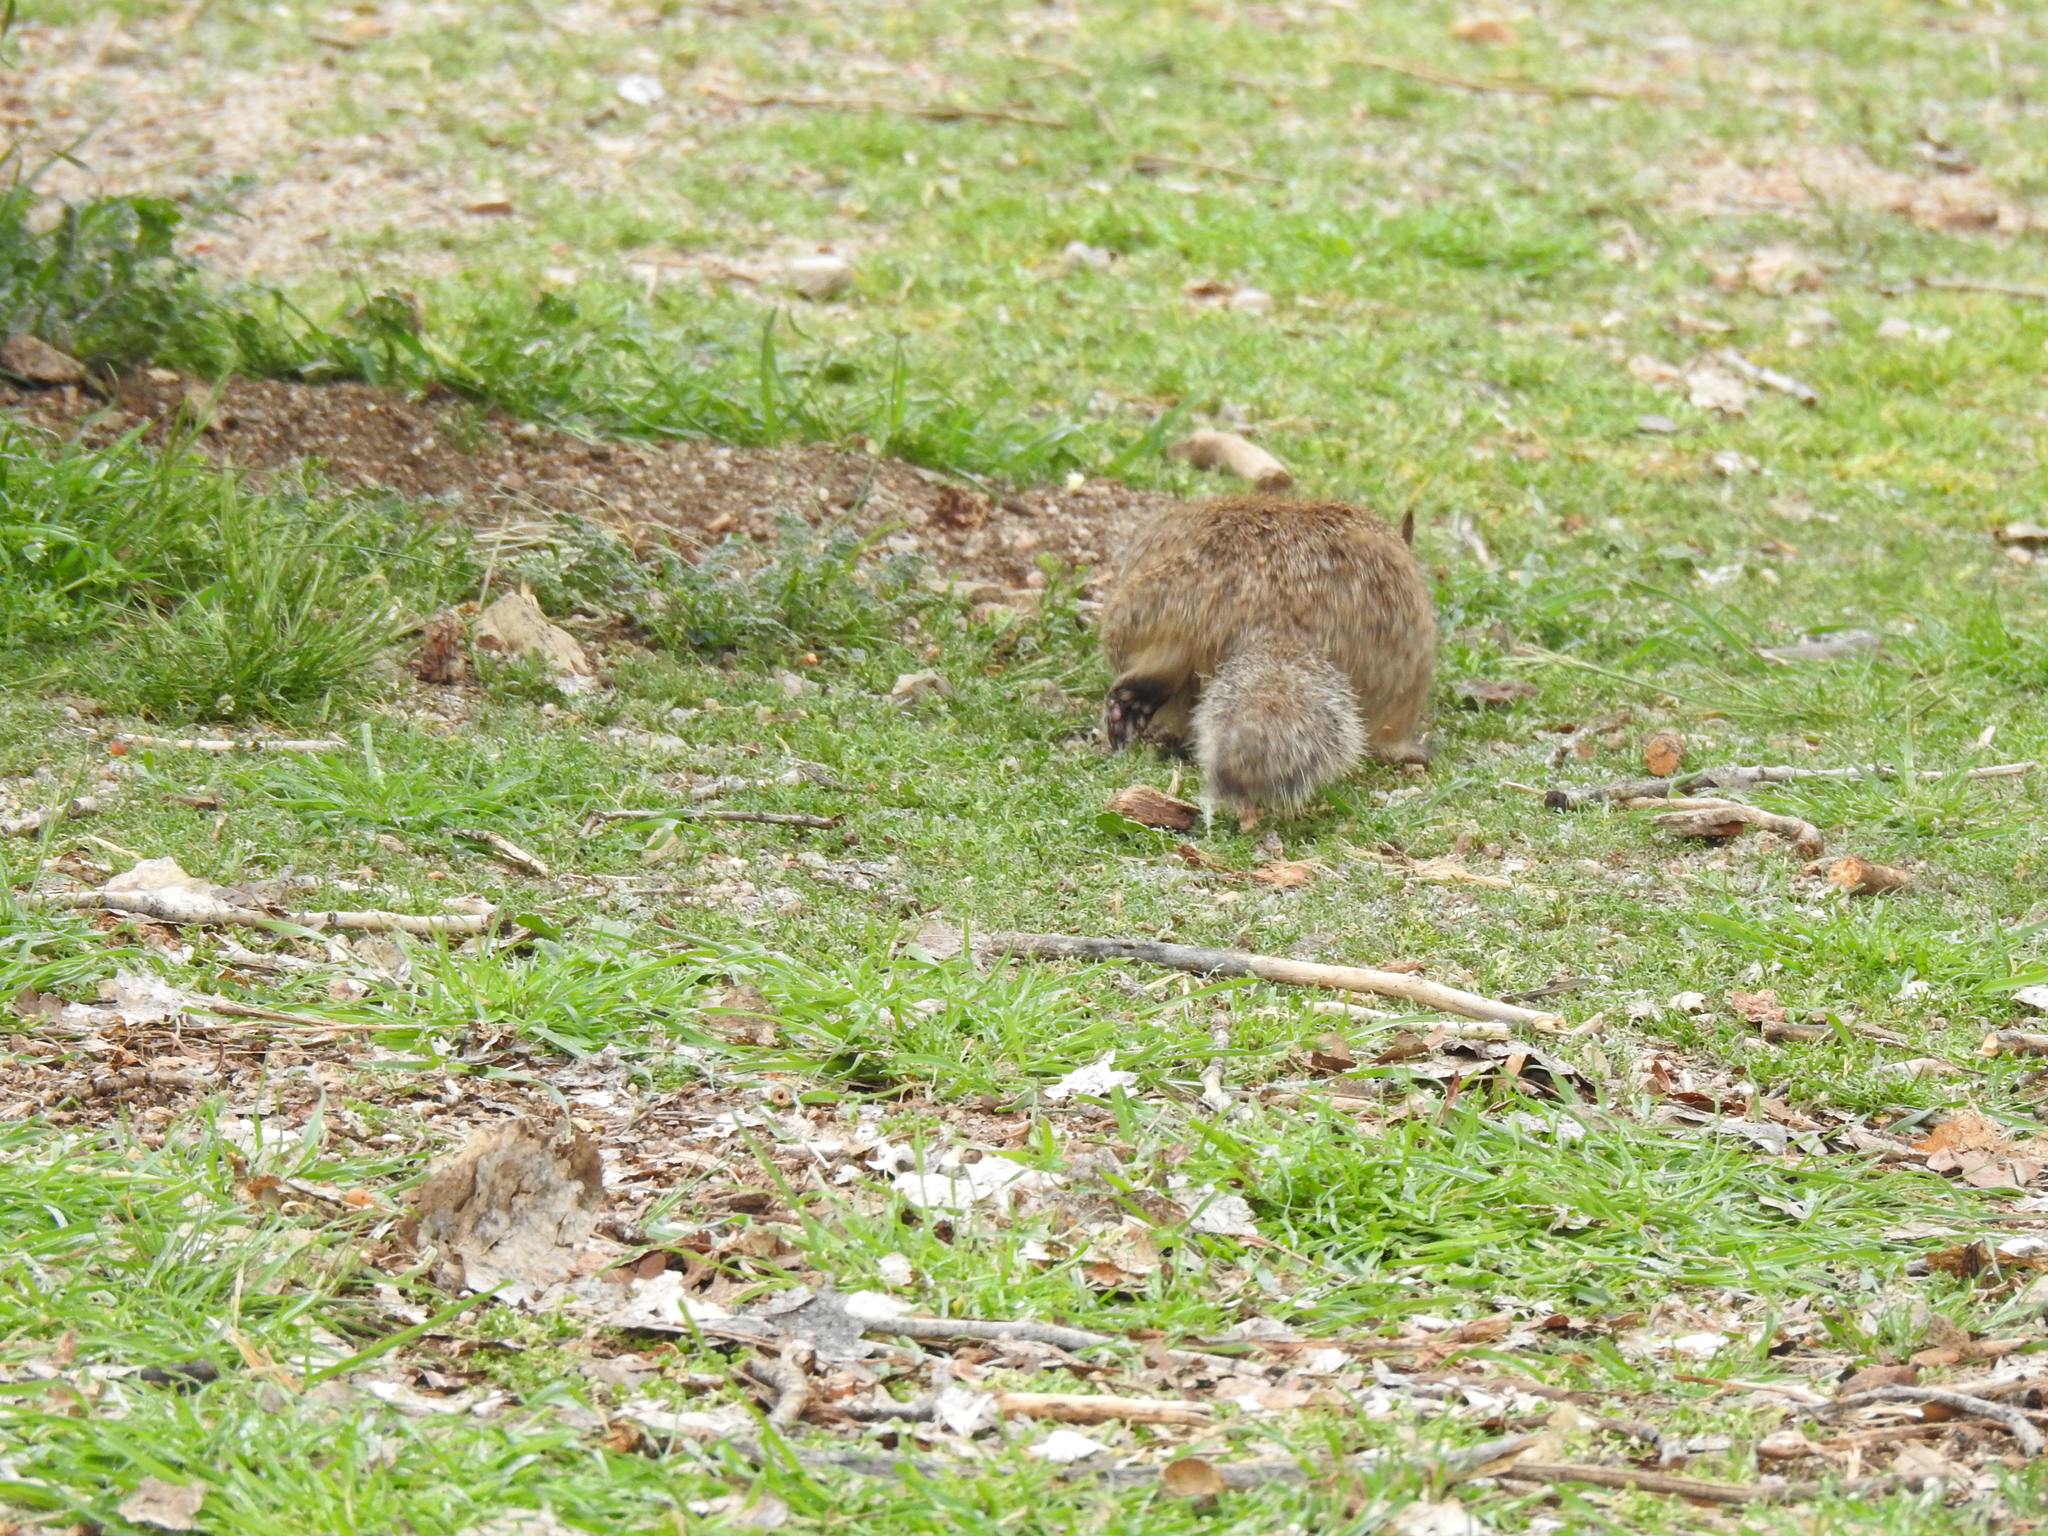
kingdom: Animalia
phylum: Chordata
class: Mammalia
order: Rodentia
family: Sciuridae
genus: Otospermophilus
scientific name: Otospermophilus beecheyi
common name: California ground squirrel
